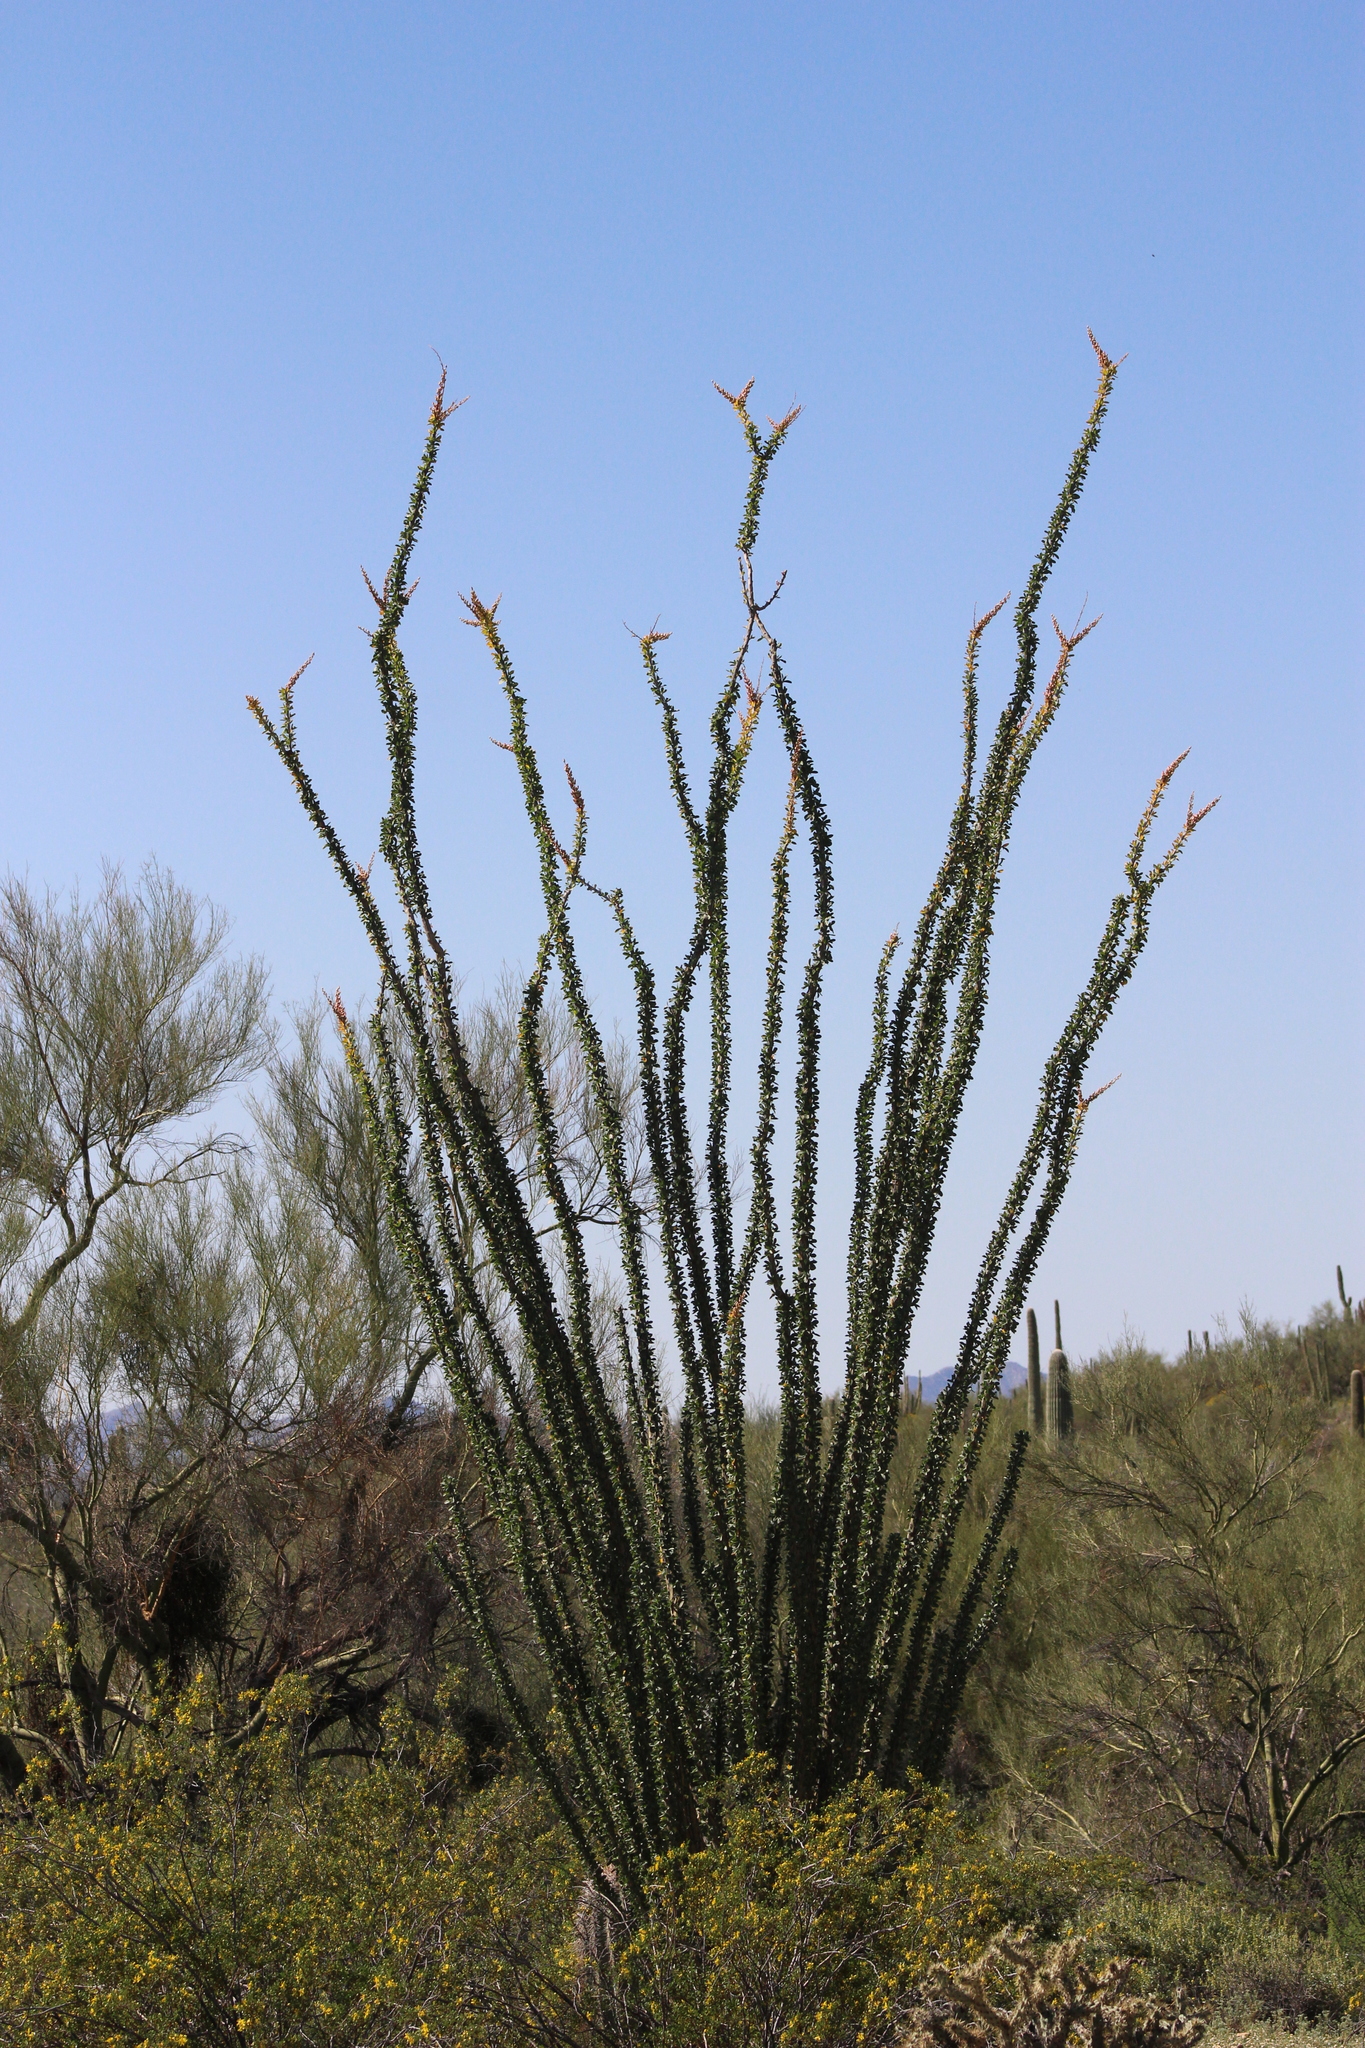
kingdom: Plantae
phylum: Tracheophyta
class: Magnoliopsida
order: Ericales
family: Fouquieriaceae
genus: Fouquieria
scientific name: Fouquieria splendens
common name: Vine-cactus
